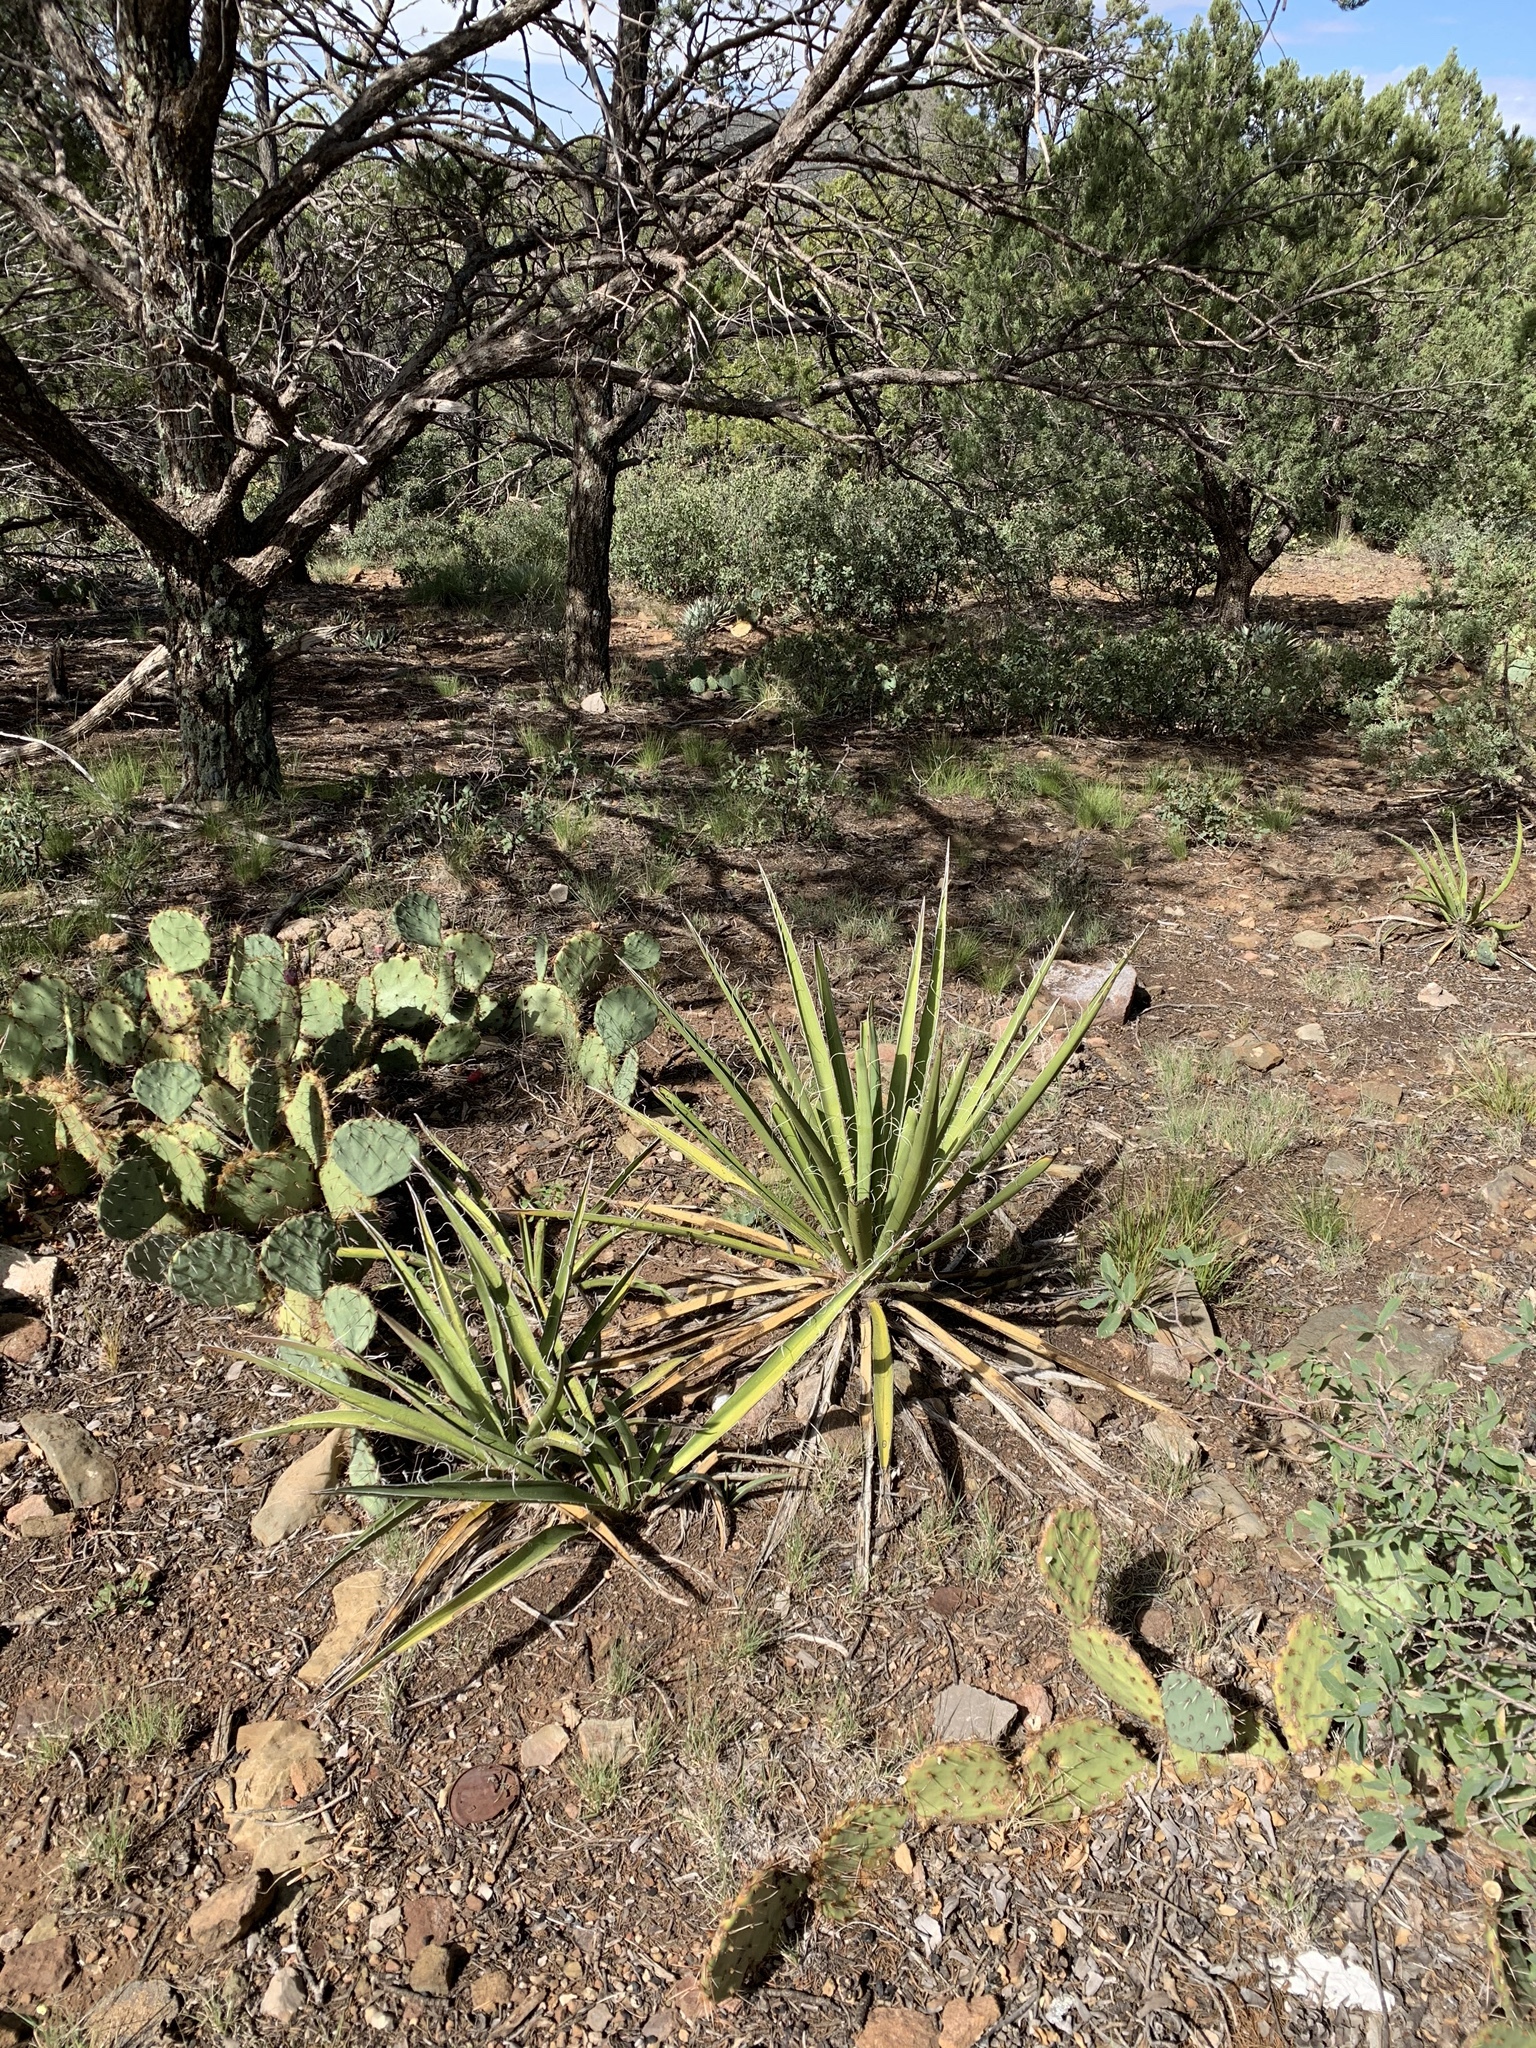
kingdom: Plantae
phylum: Tracheophyta
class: Liliopsida
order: Asparagales
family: Asparagaceae
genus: Yucca
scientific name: Yucca baccata
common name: Banana yucca
